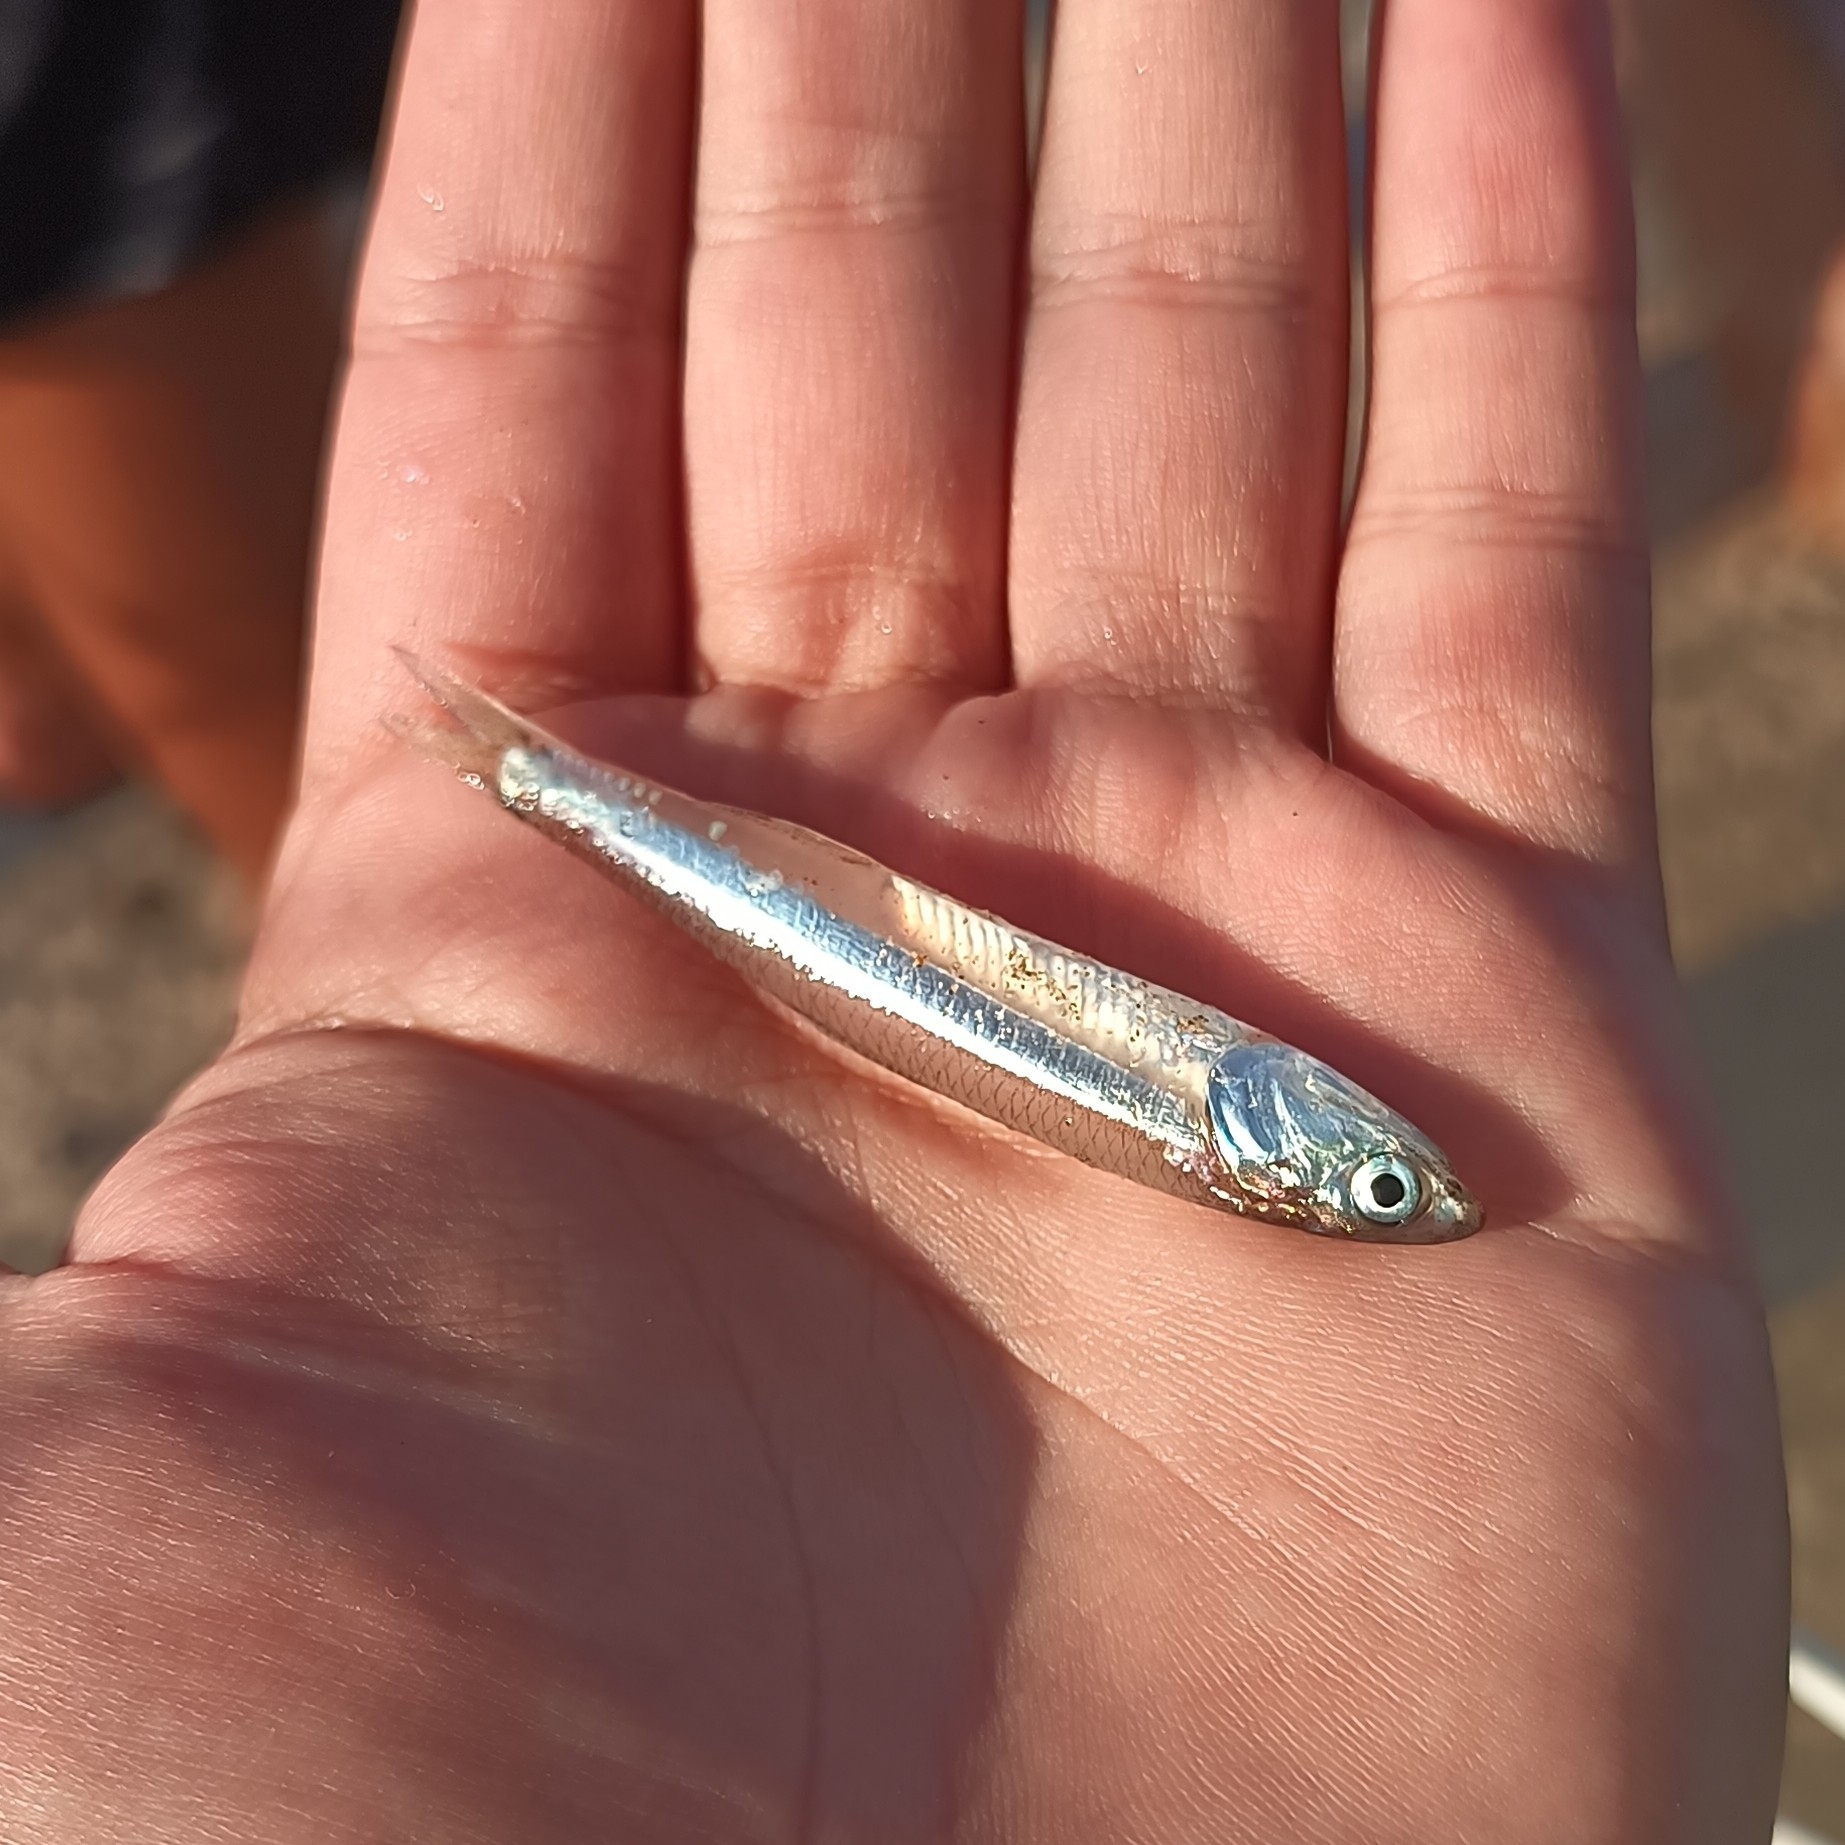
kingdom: Animalia
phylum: Chordata
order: Clupeiformes
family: Engraulidae
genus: Anchoa
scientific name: Anchoa argentivittata
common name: Regan's anchovy
